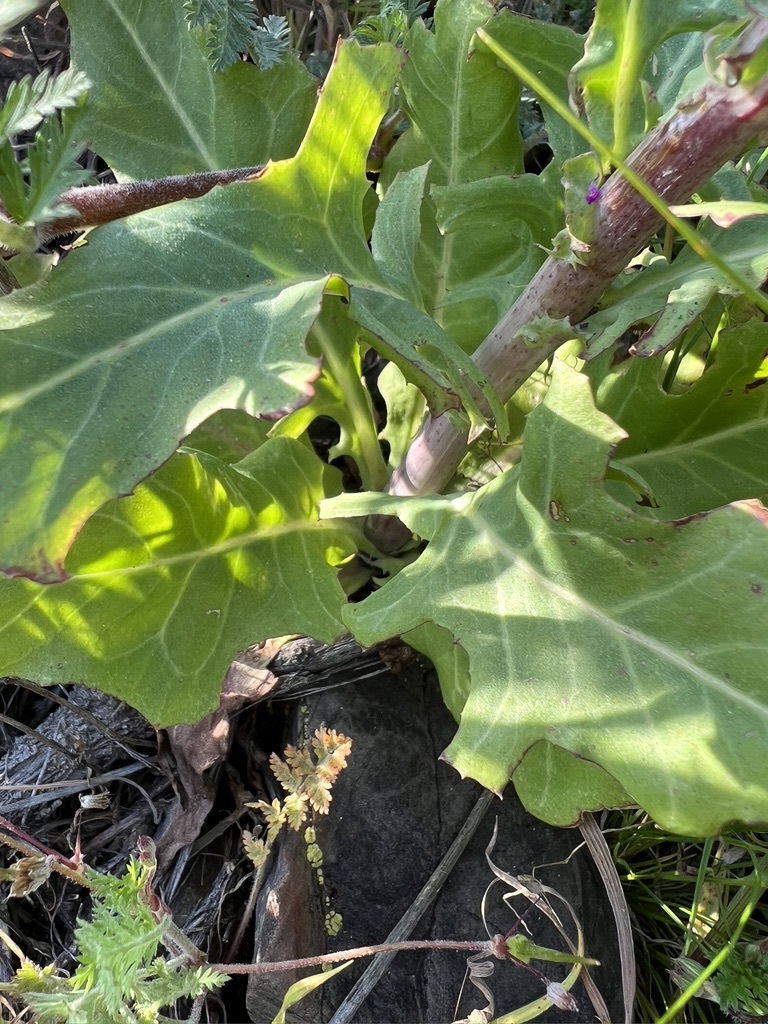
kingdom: Plantae
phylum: Tracheophyta
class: Magnoliopsida
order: Asterales
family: Asteraceae
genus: Rafinesquia
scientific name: Rafinesquia californica
